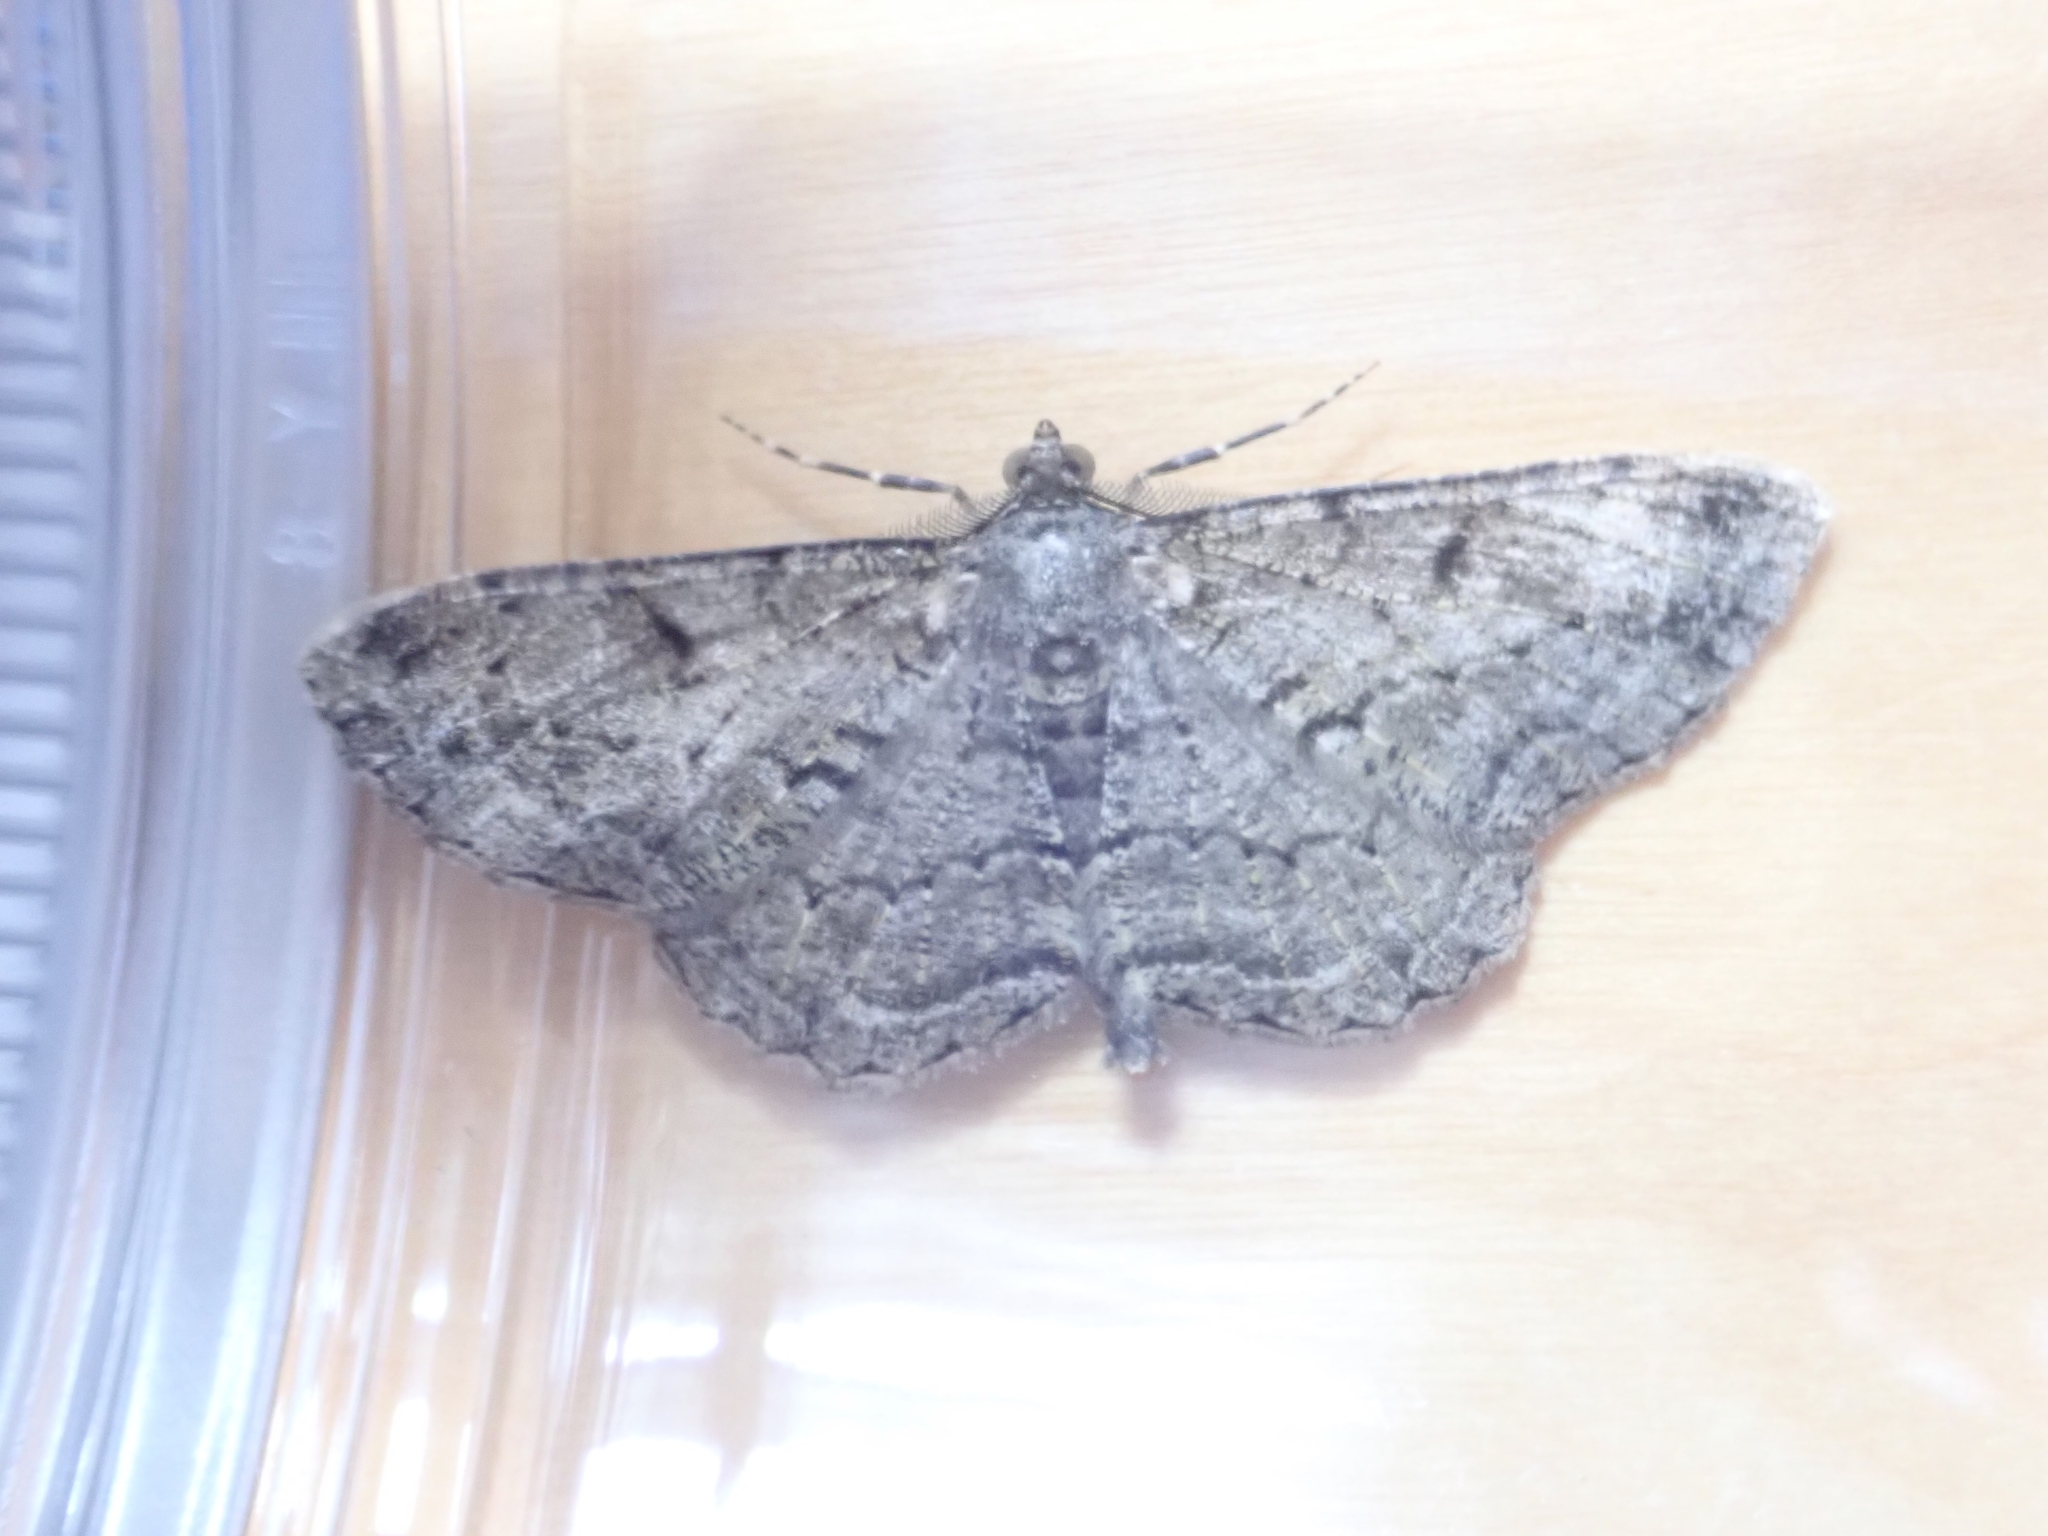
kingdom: Animalia
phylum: Arthropoda
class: Insecta
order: Lepidoptera
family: Geometridae
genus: Peribatodes
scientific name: Peribatodes rhomboidaria
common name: Willow beauty
